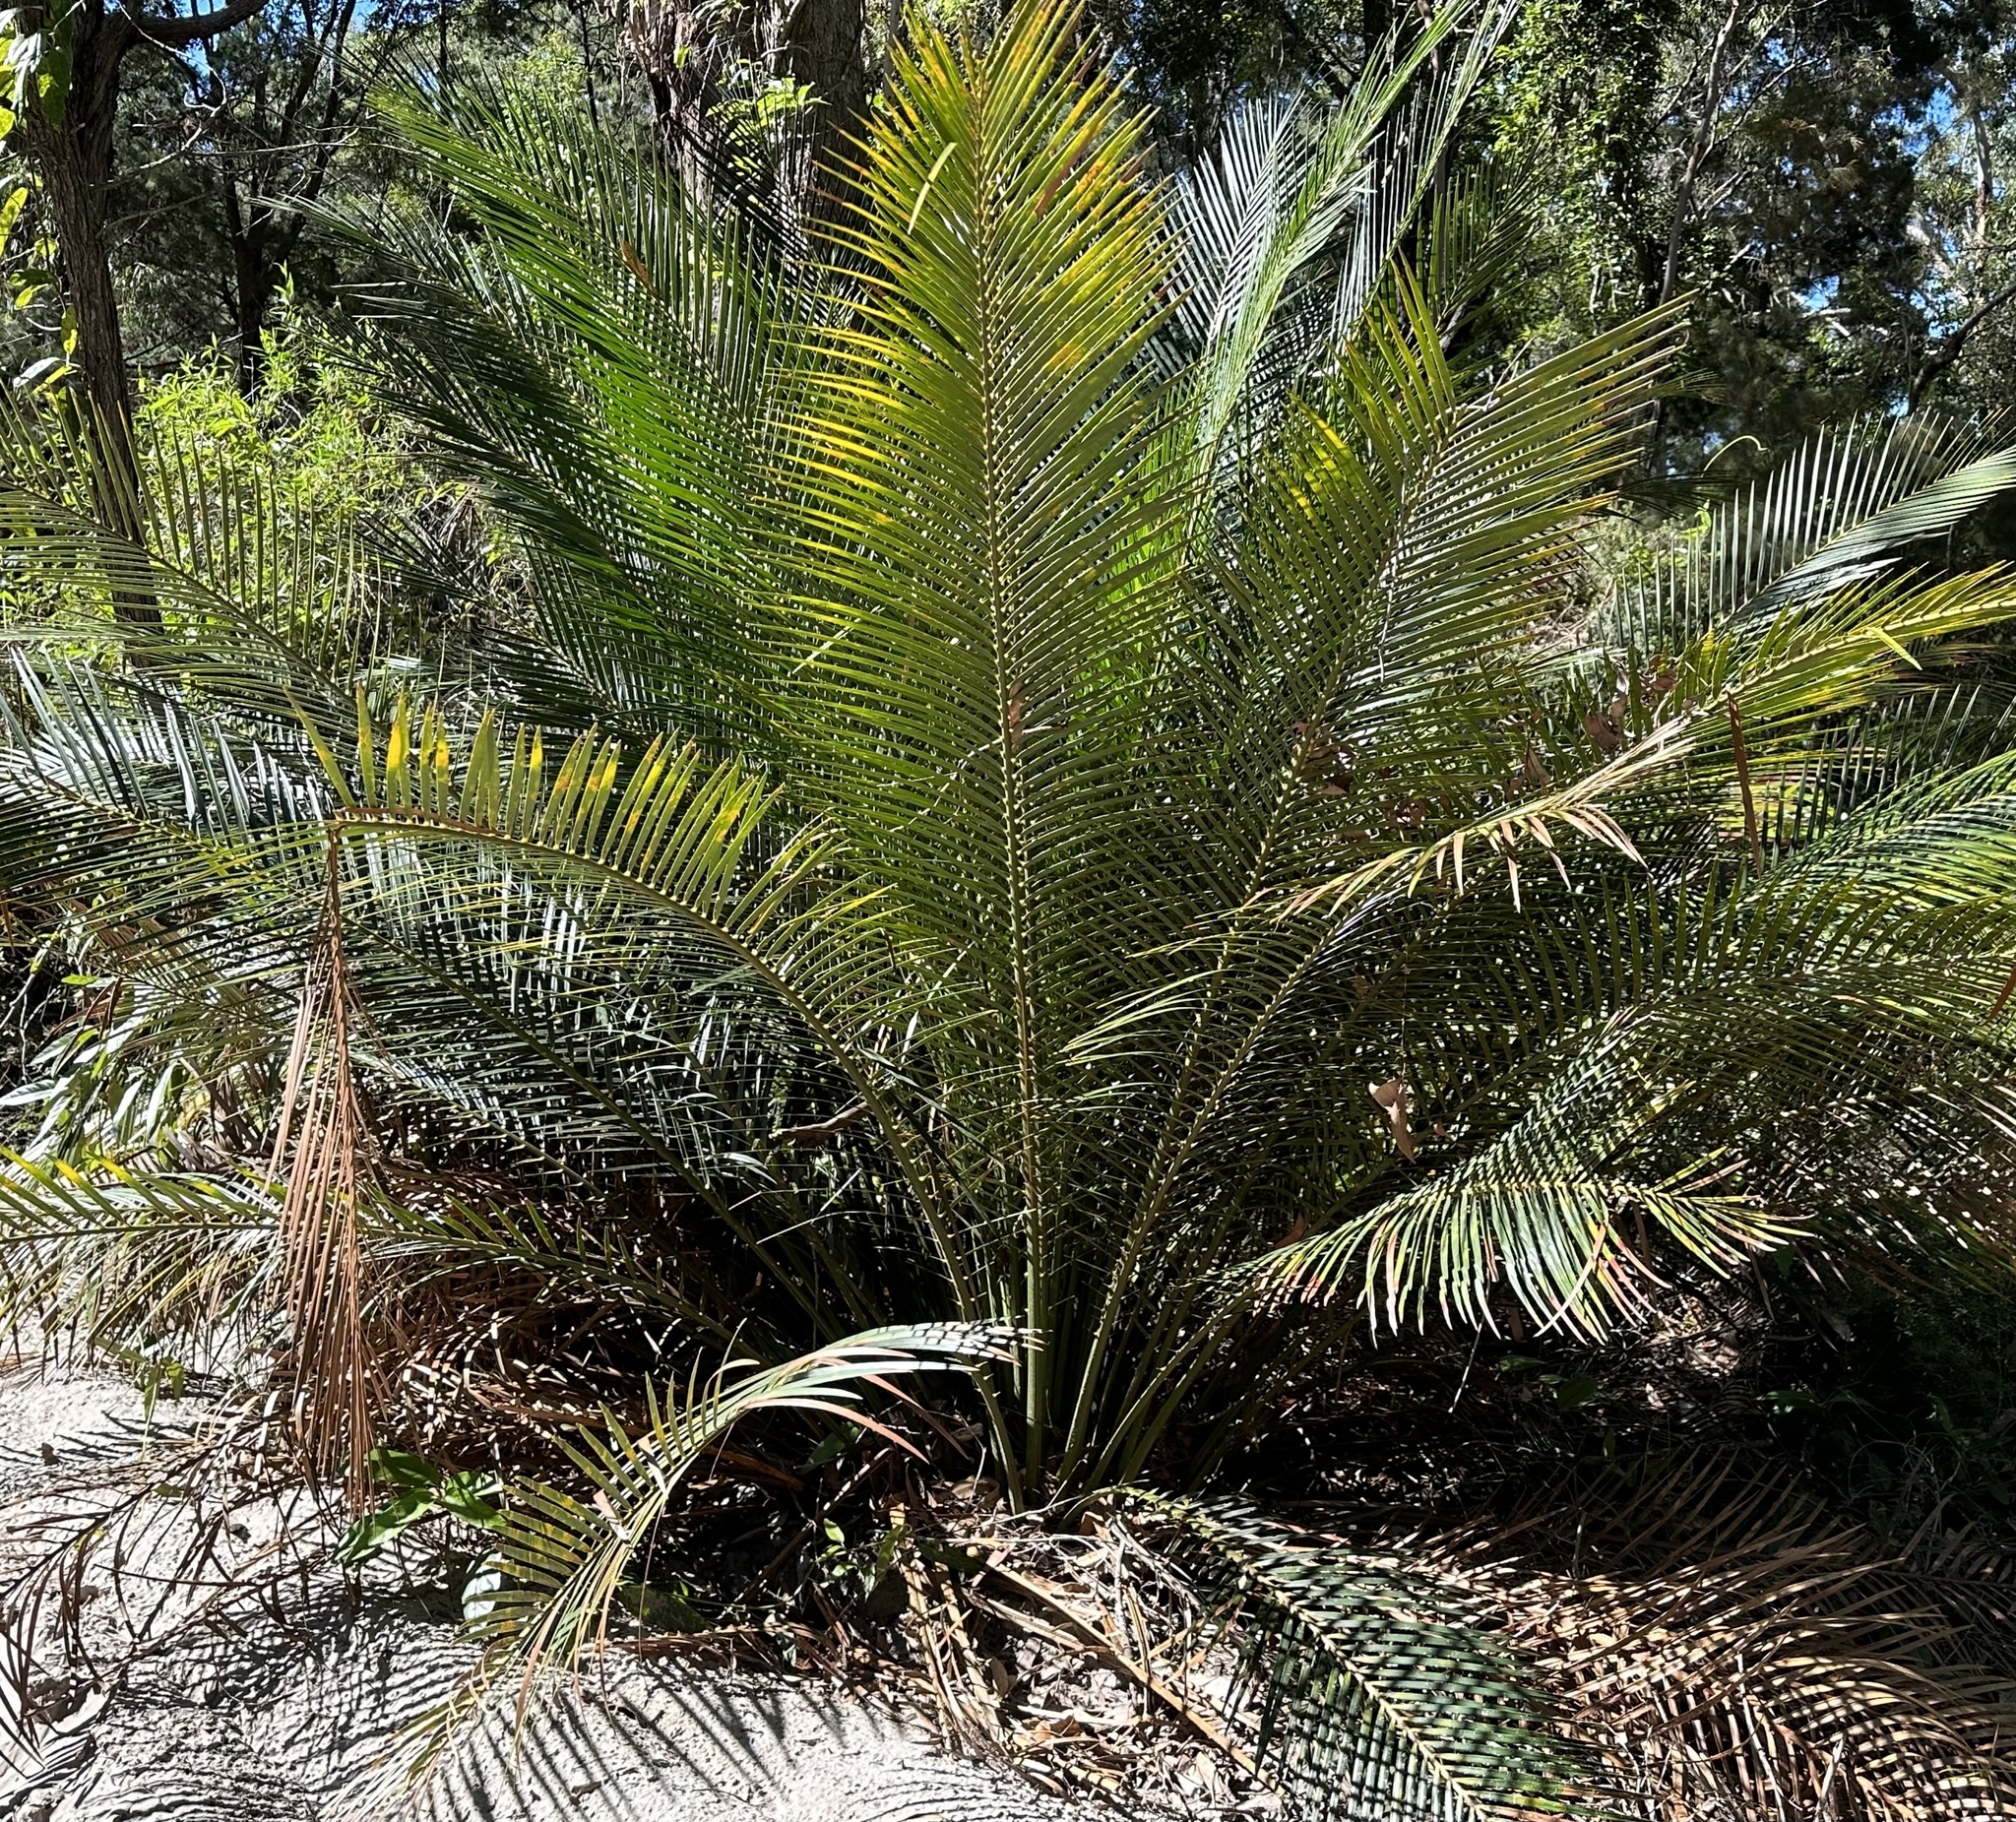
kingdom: Plantae
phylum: Tracheophyta
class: Cycadopsida
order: Cycadales
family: Zamiaceae
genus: Macrozamia
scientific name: Macrozamia douglasii
